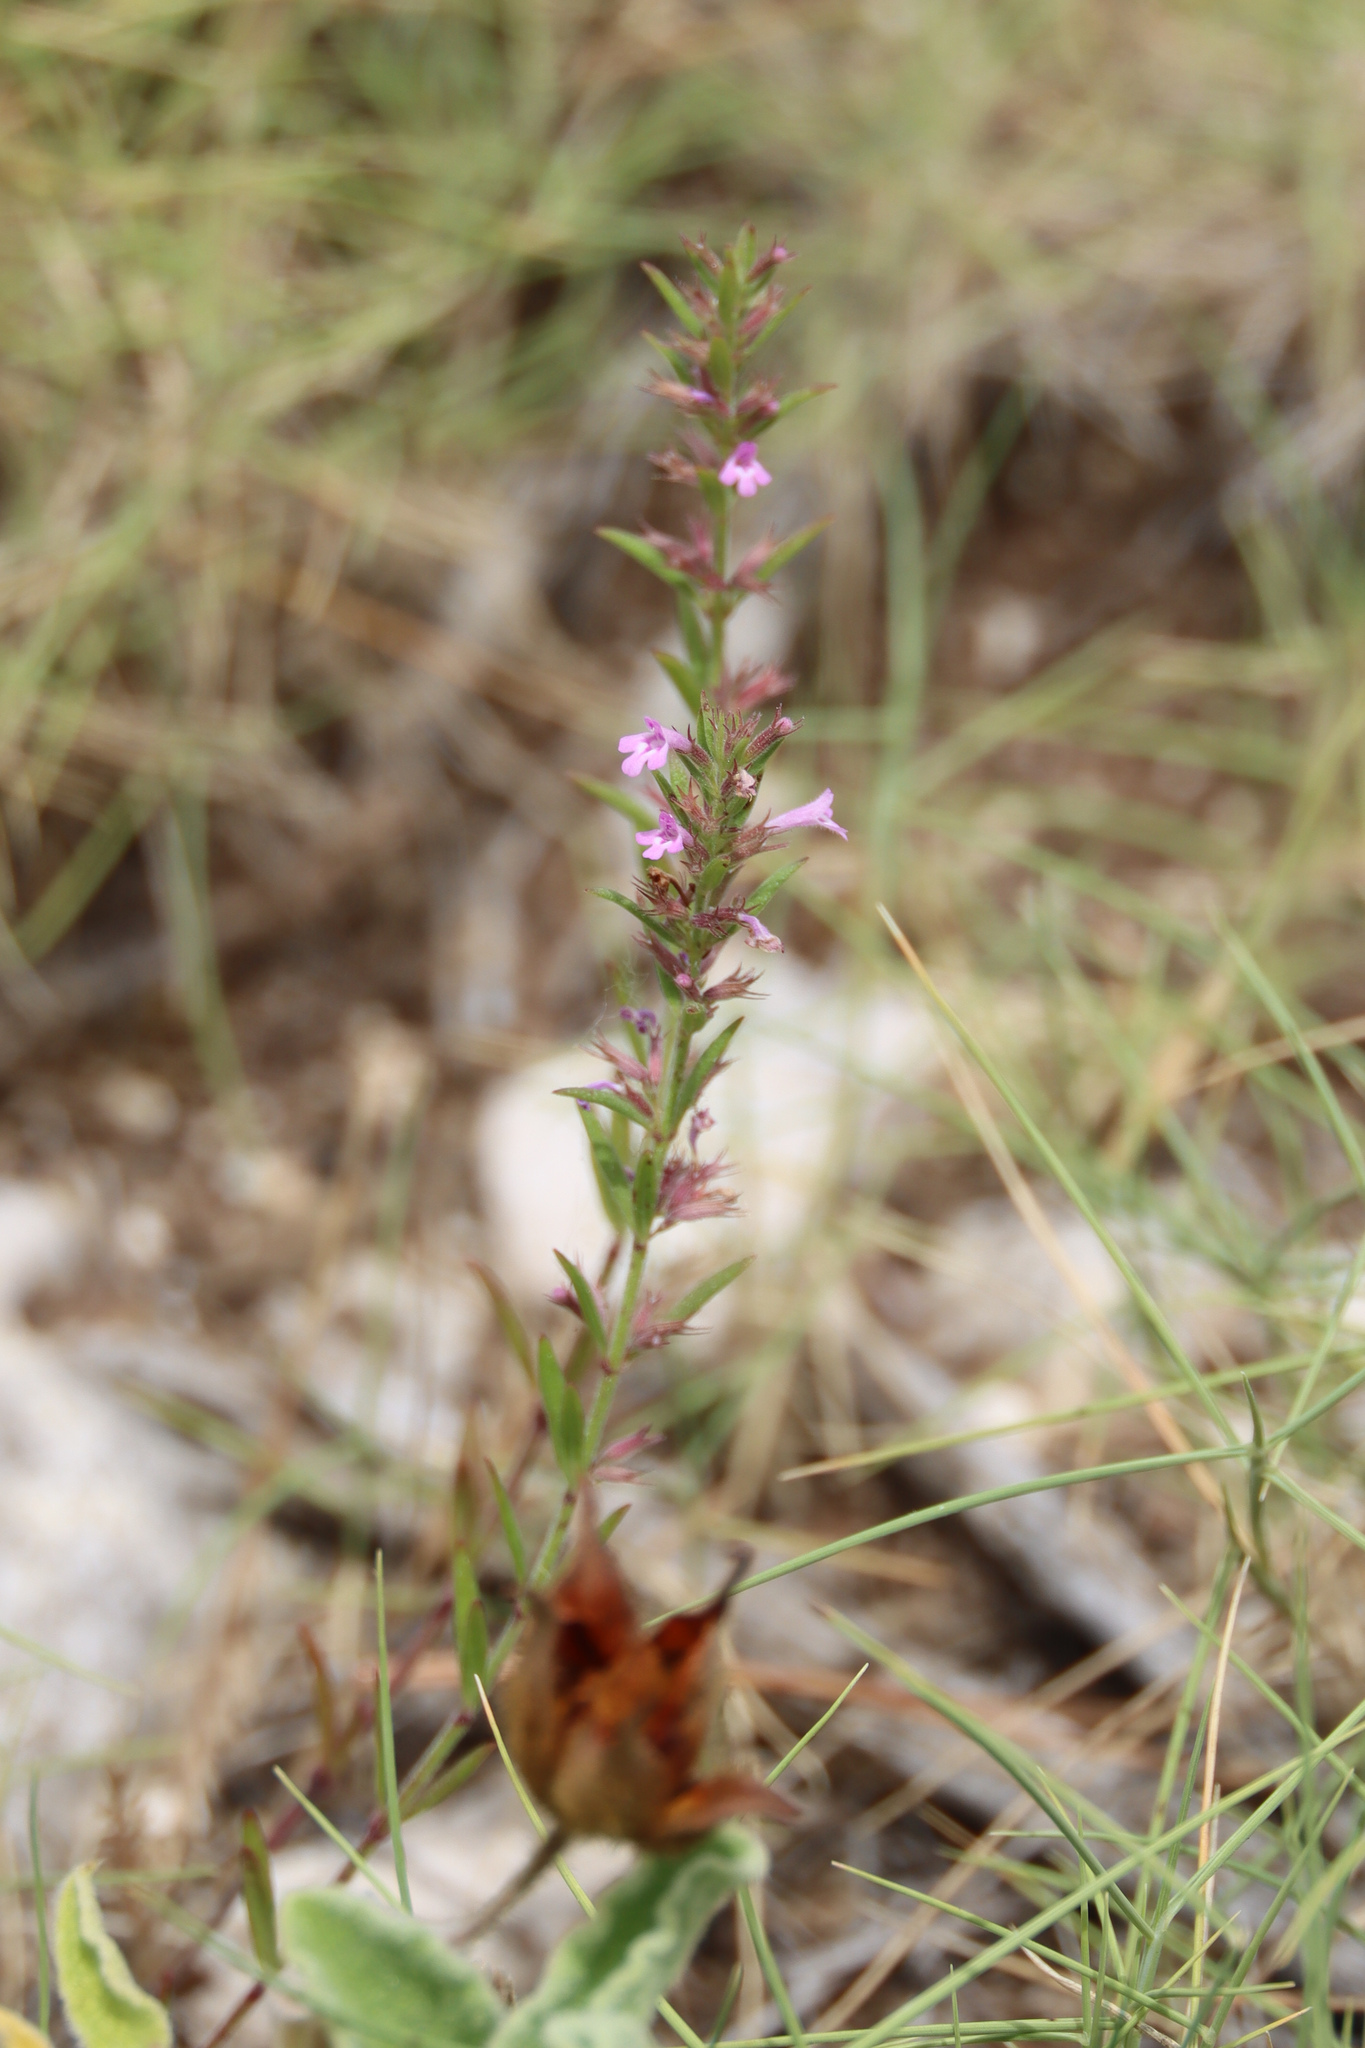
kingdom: Plantae
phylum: Tracheophyta
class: Magnoliopsida
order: Lamiales
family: Lamiaceae
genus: Micromeria
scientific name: Micromeria graeca
